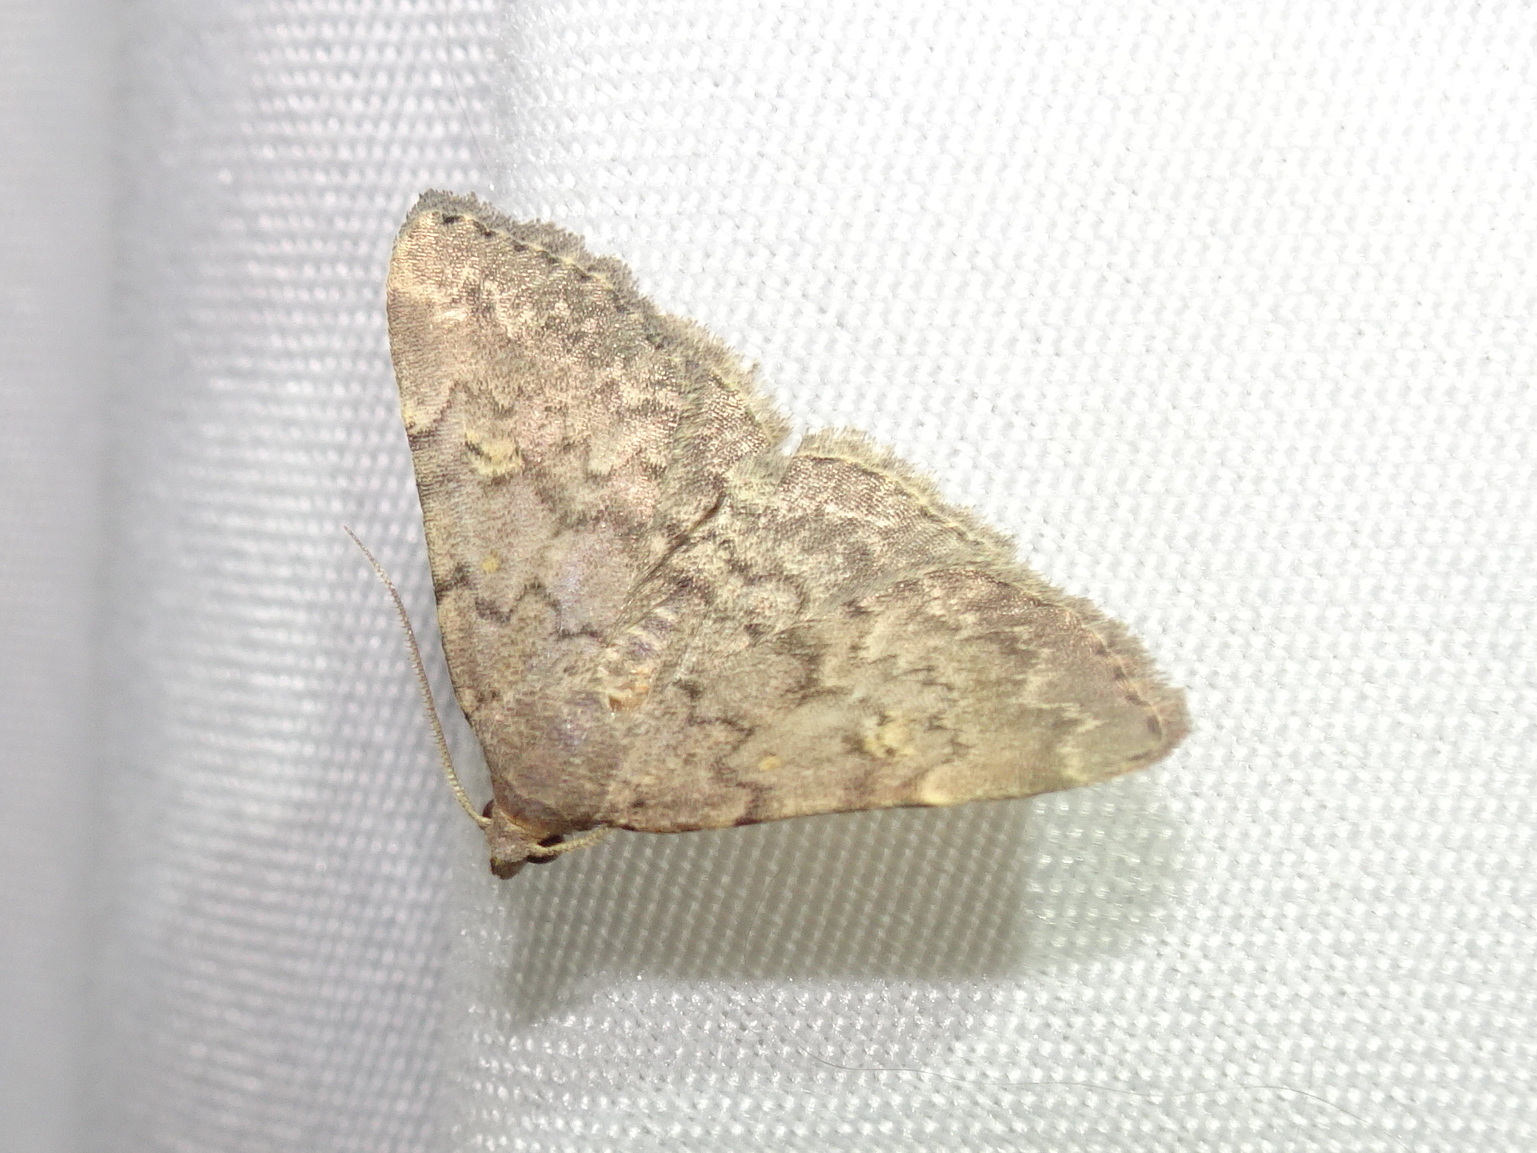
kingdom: Animalia
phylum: Arthropoda
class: Insecta
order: Lepidoptera
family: Erebidae
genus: Idia
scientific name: Idia aemula
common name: Common idia moth
